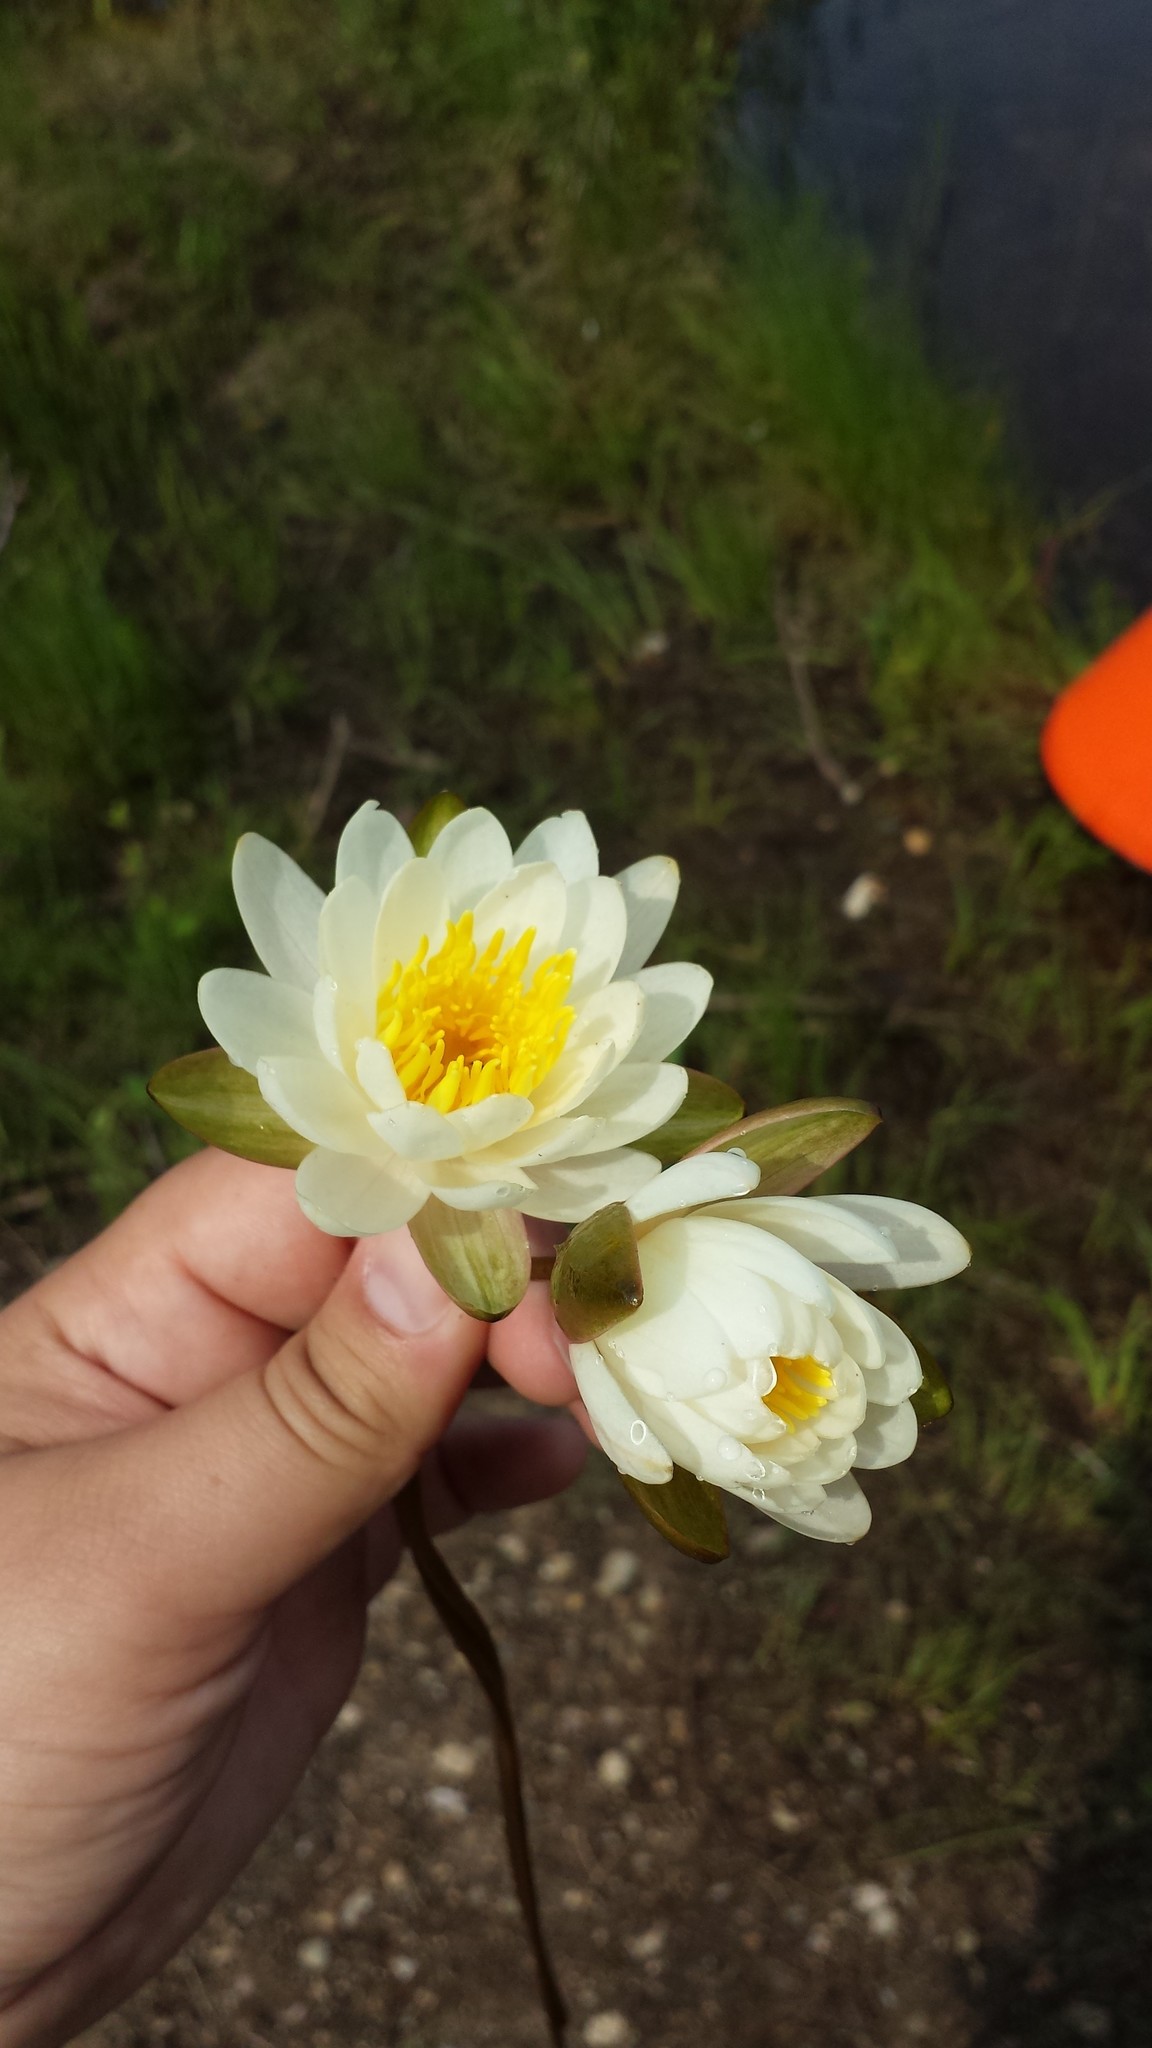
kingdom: Plantae
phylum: Tracheophyta
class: Magnoliopsida
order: Nymphaeales
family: Nymphaeaceae
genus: Nymphaea
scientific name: Nymphaea odorata
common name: Fragrant water-lily
